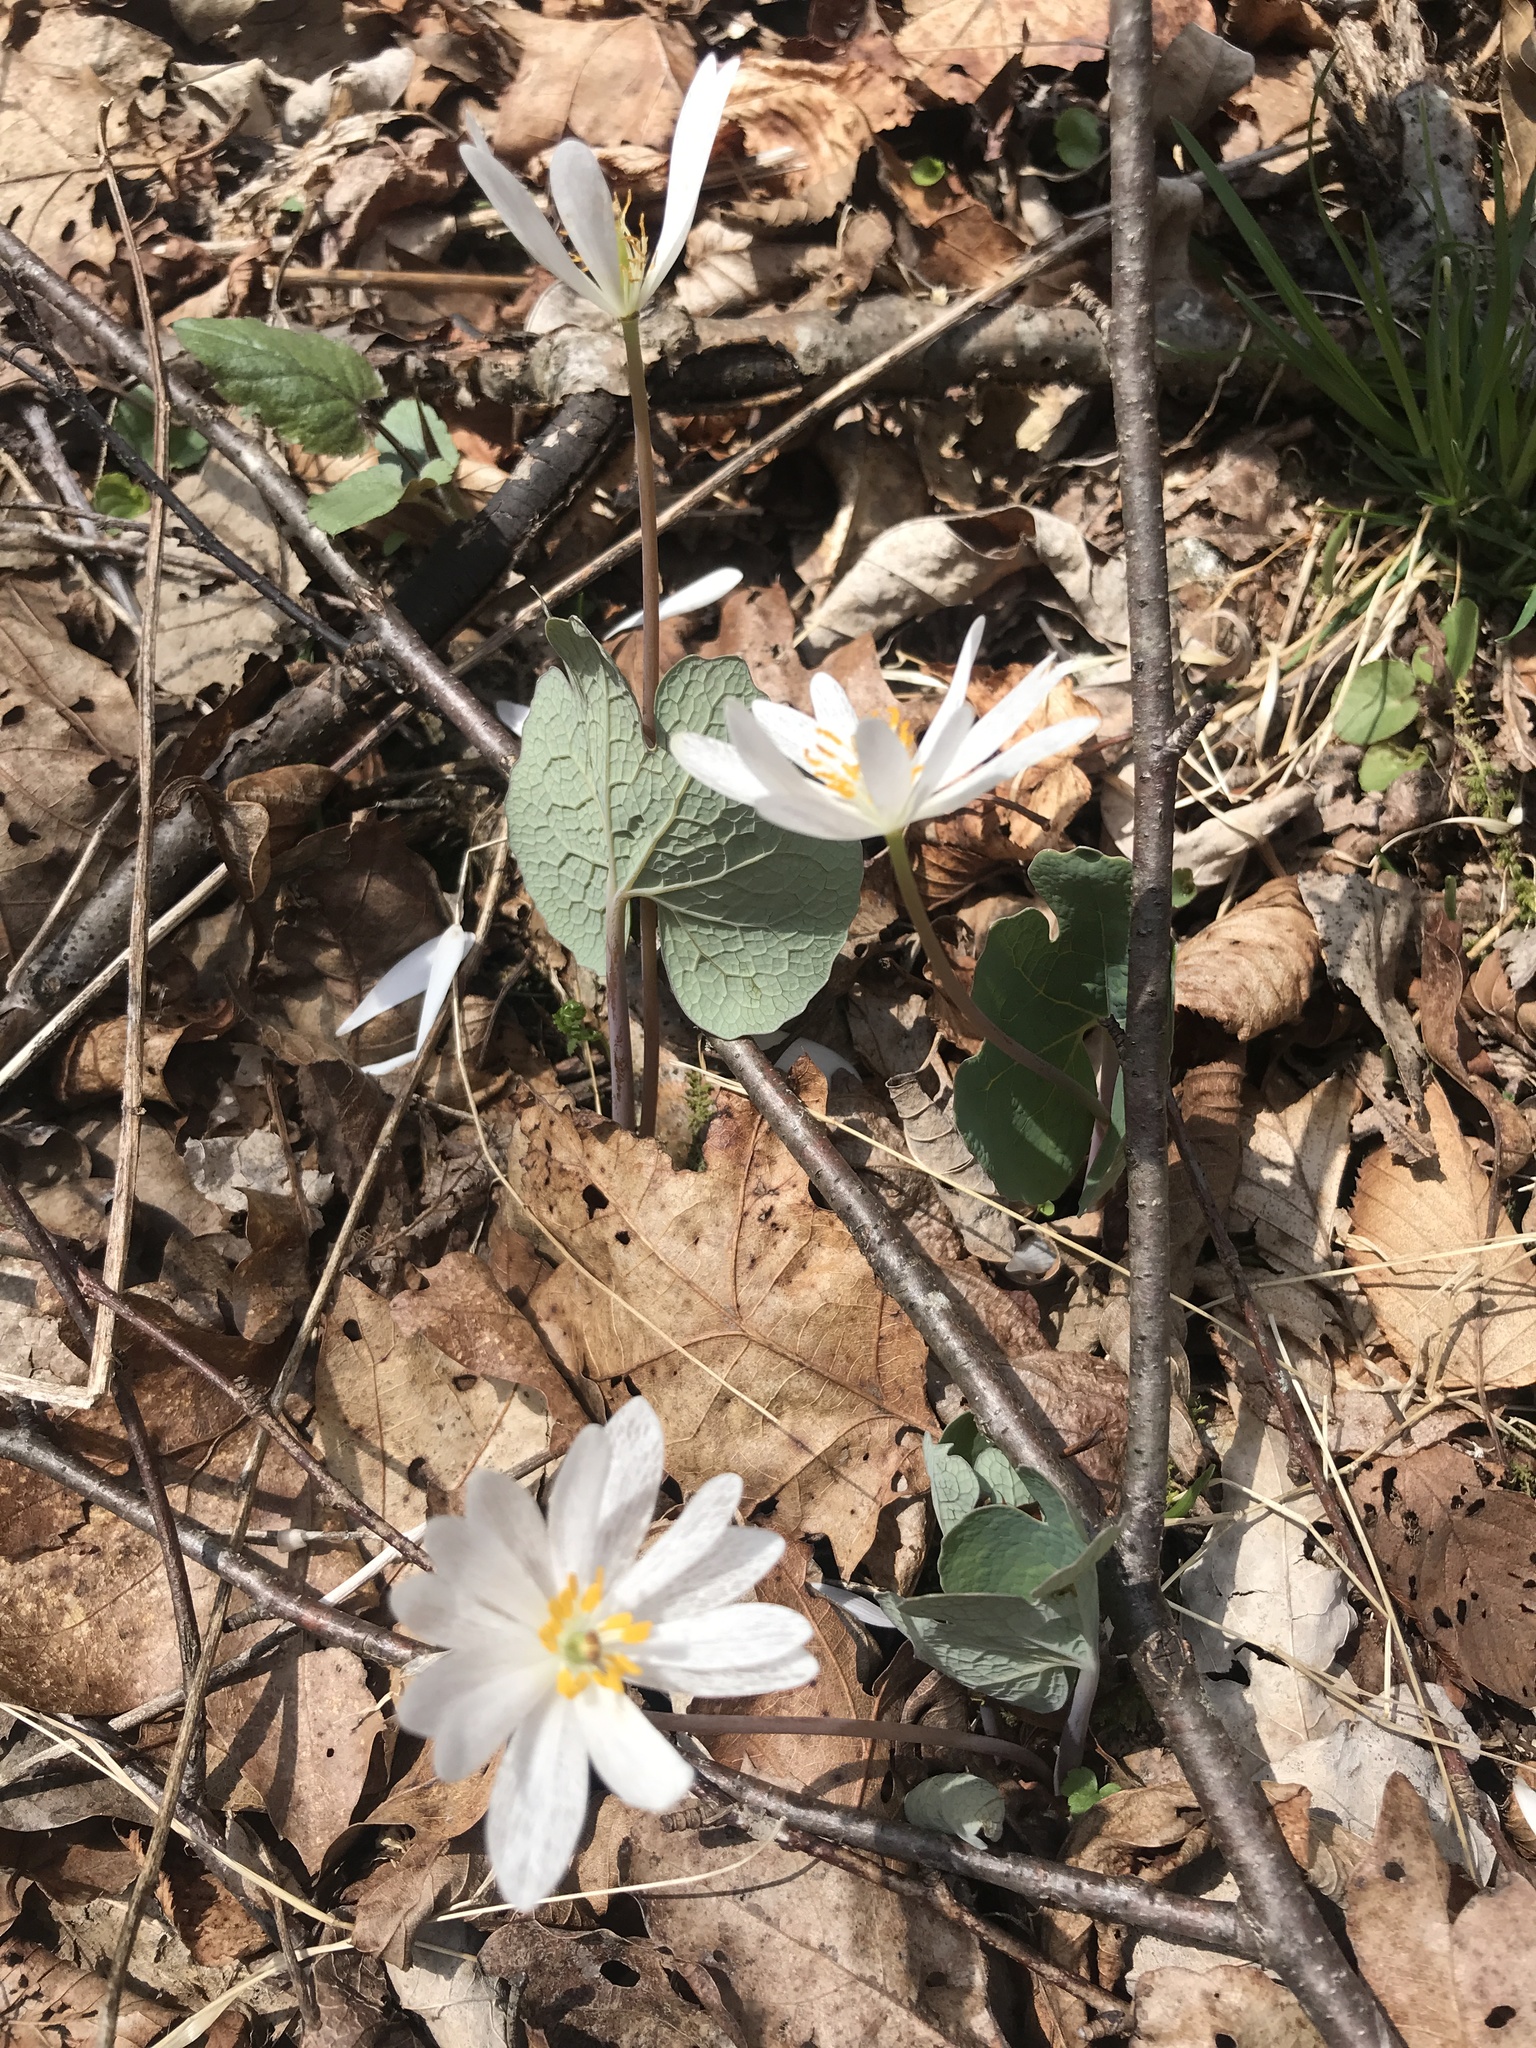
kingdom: Plantae
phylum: Tracheophyta
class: Magnoliopsida
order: Ranunculales
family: Papaveraceae
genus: Sanguinaria
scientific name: Sanguinaria canadensis
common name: Bloodroot
